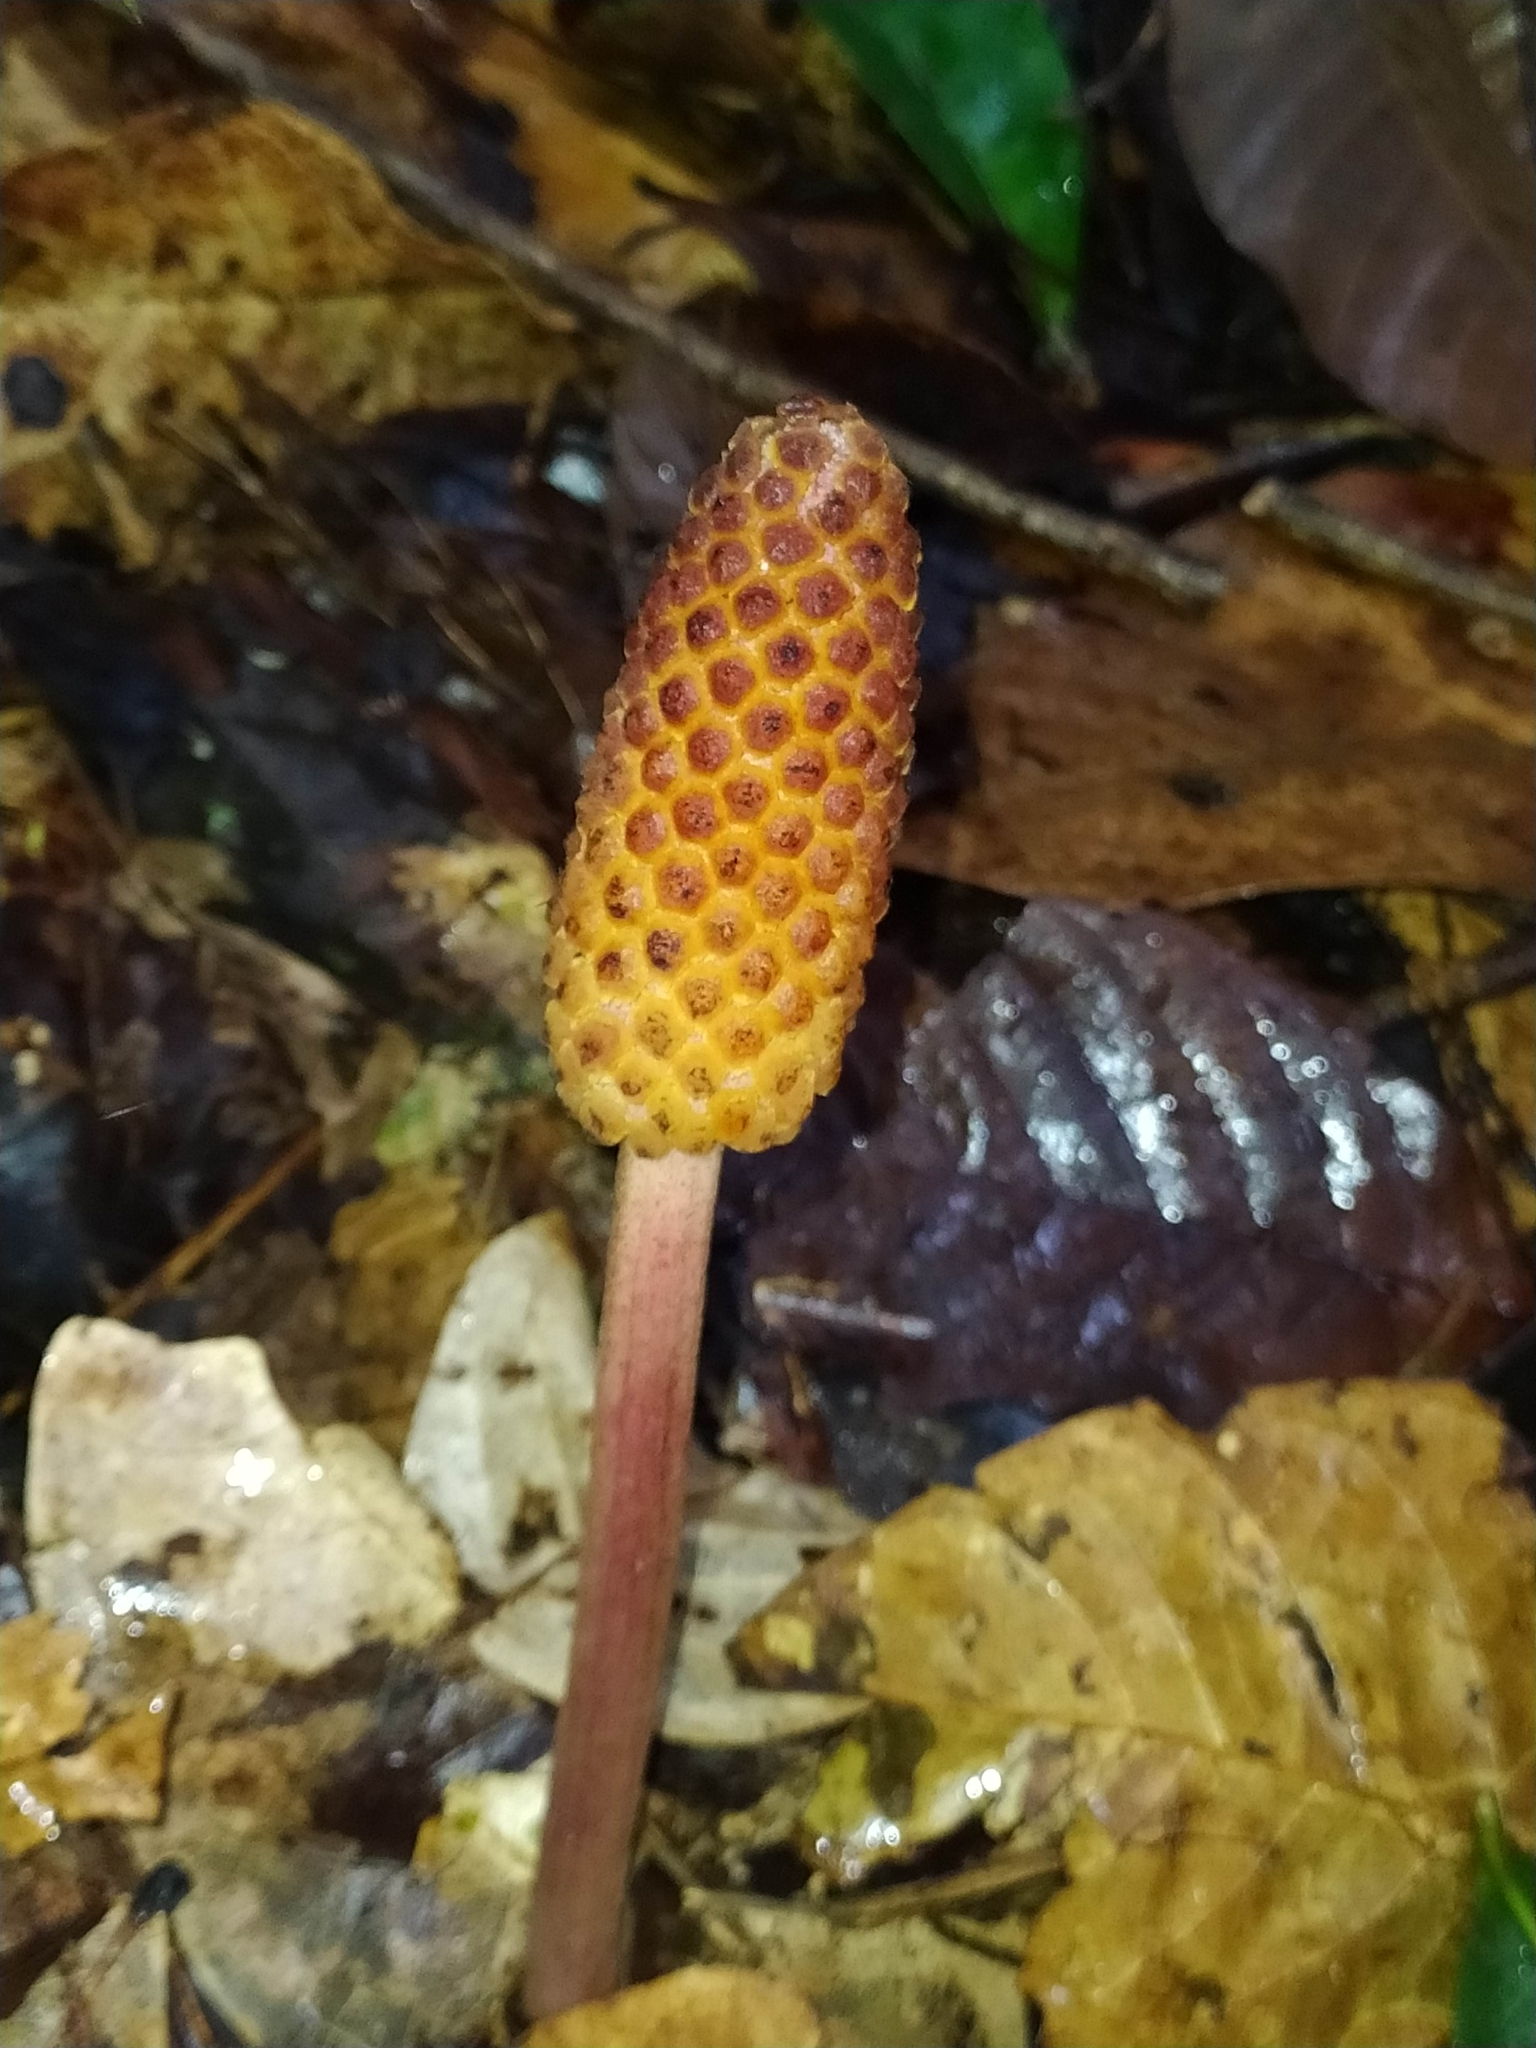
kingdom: Plantae
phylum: Tracheophyta
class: Magnoliopsida
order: Santalales
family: Balanophoraceae
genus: Helosis
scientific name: Helosis cayennensis
